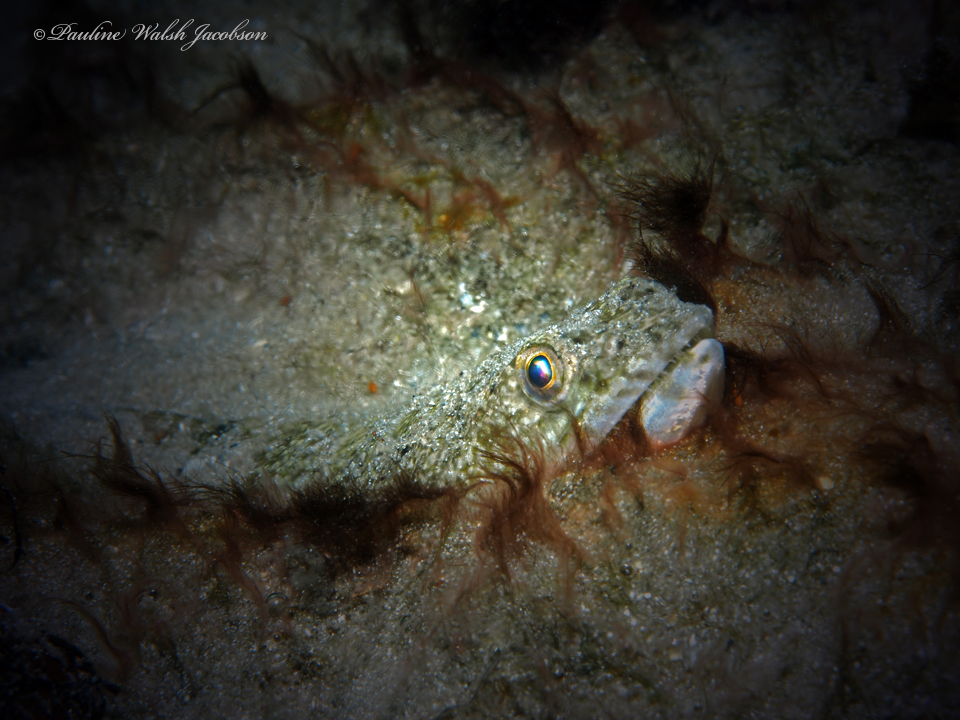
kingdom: Animalia
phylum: Chordata
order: Aulopiformes
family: Synodontidae
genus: Synodus
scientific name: Synodus foetens
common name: Inshore lizardfish
